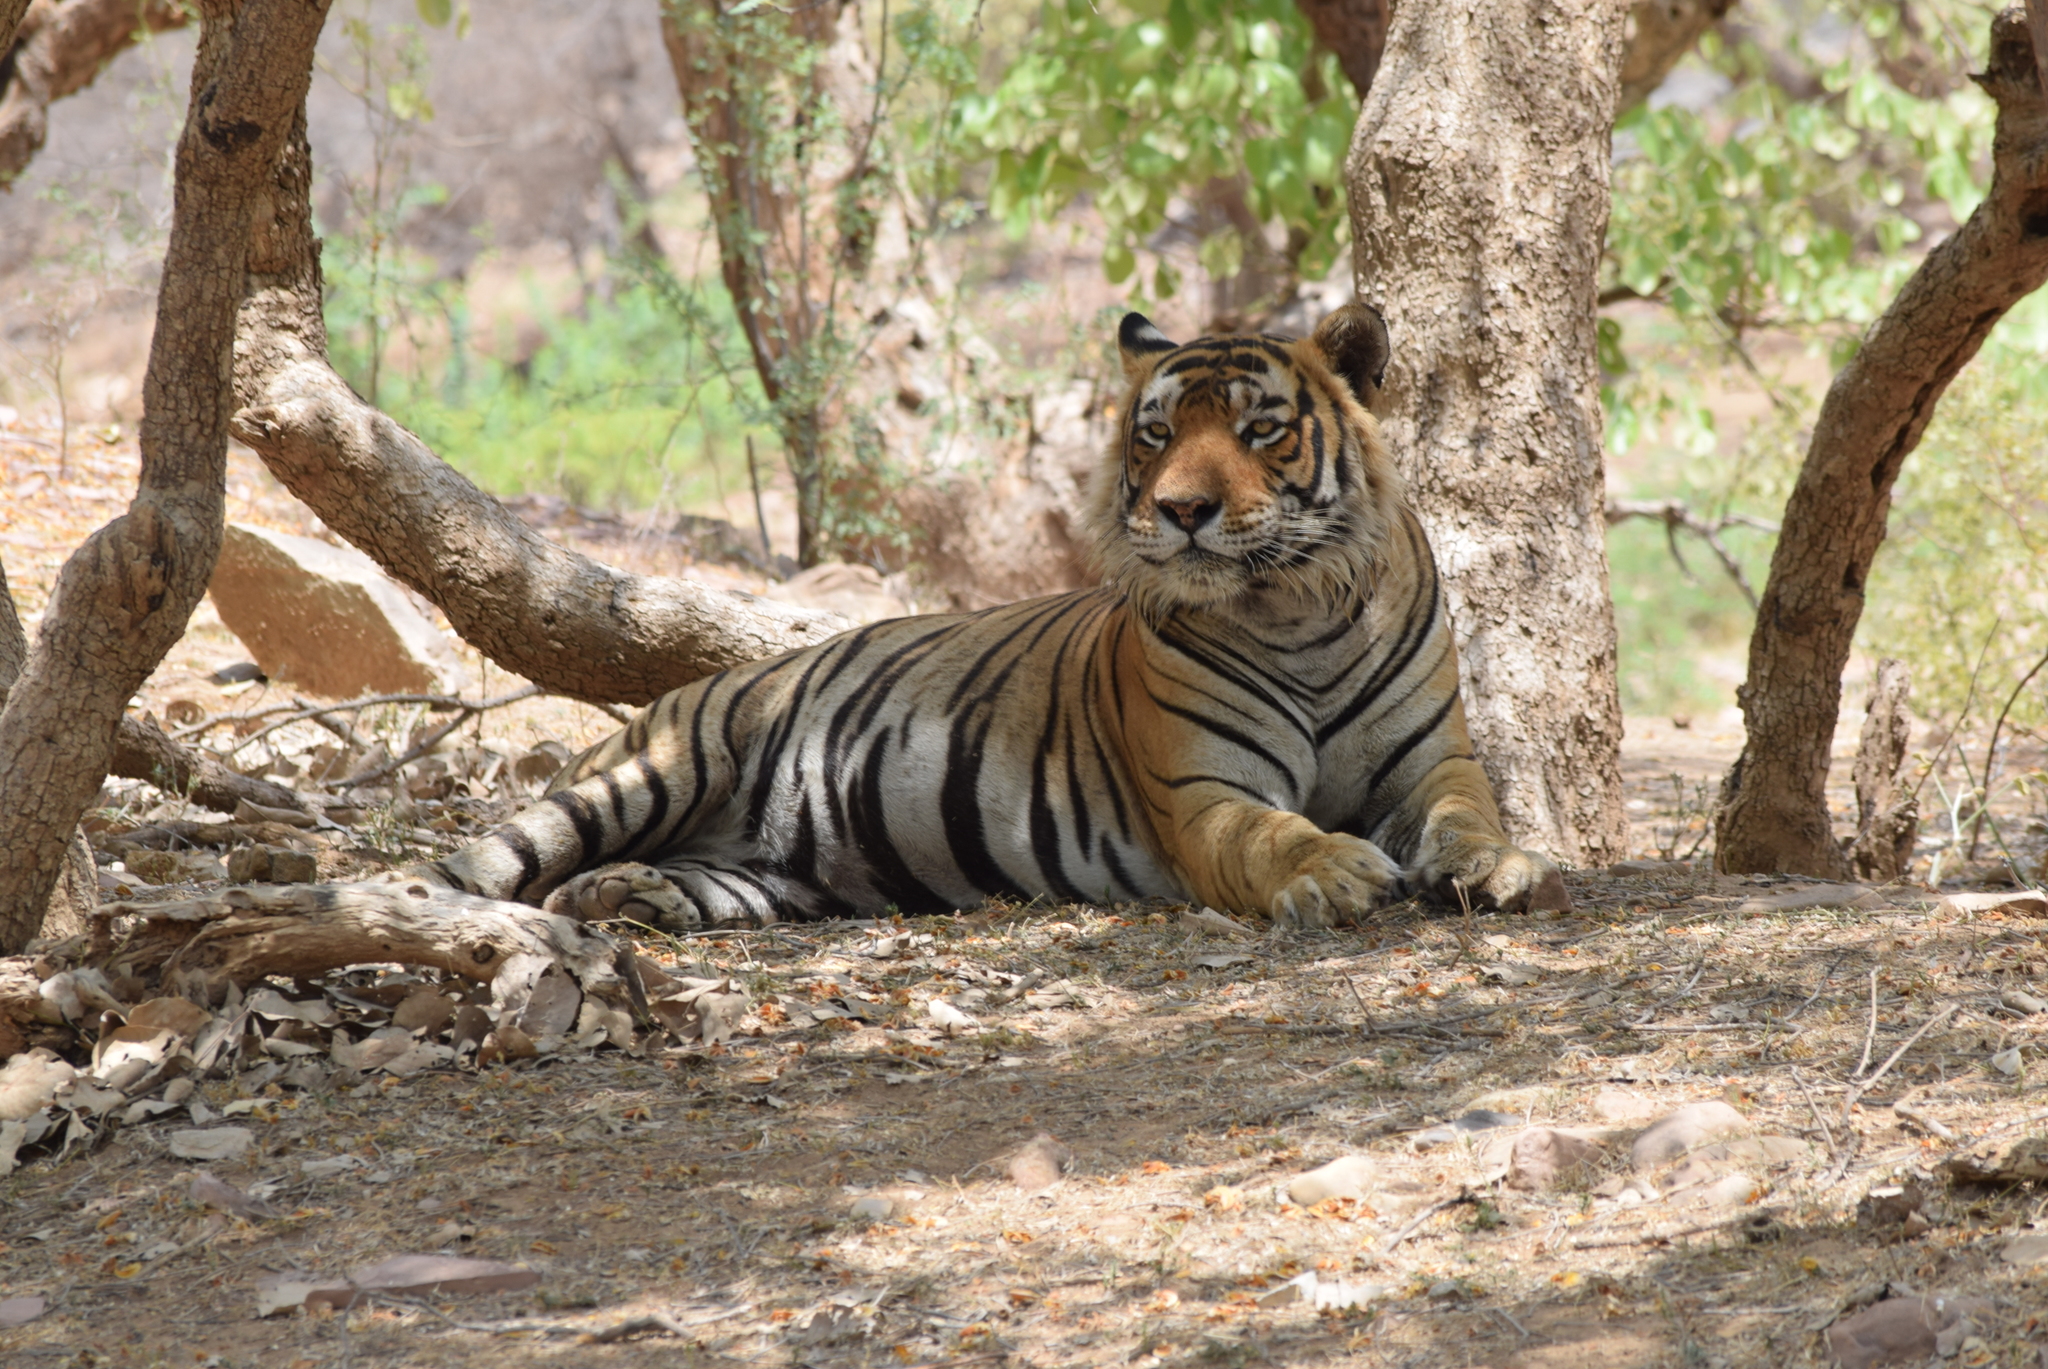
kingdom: Animalia
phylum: Chordata
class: Mammalia
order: Carnivora
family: Felidae
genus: Panthera
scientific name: Panthera tigris
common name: Tiger
